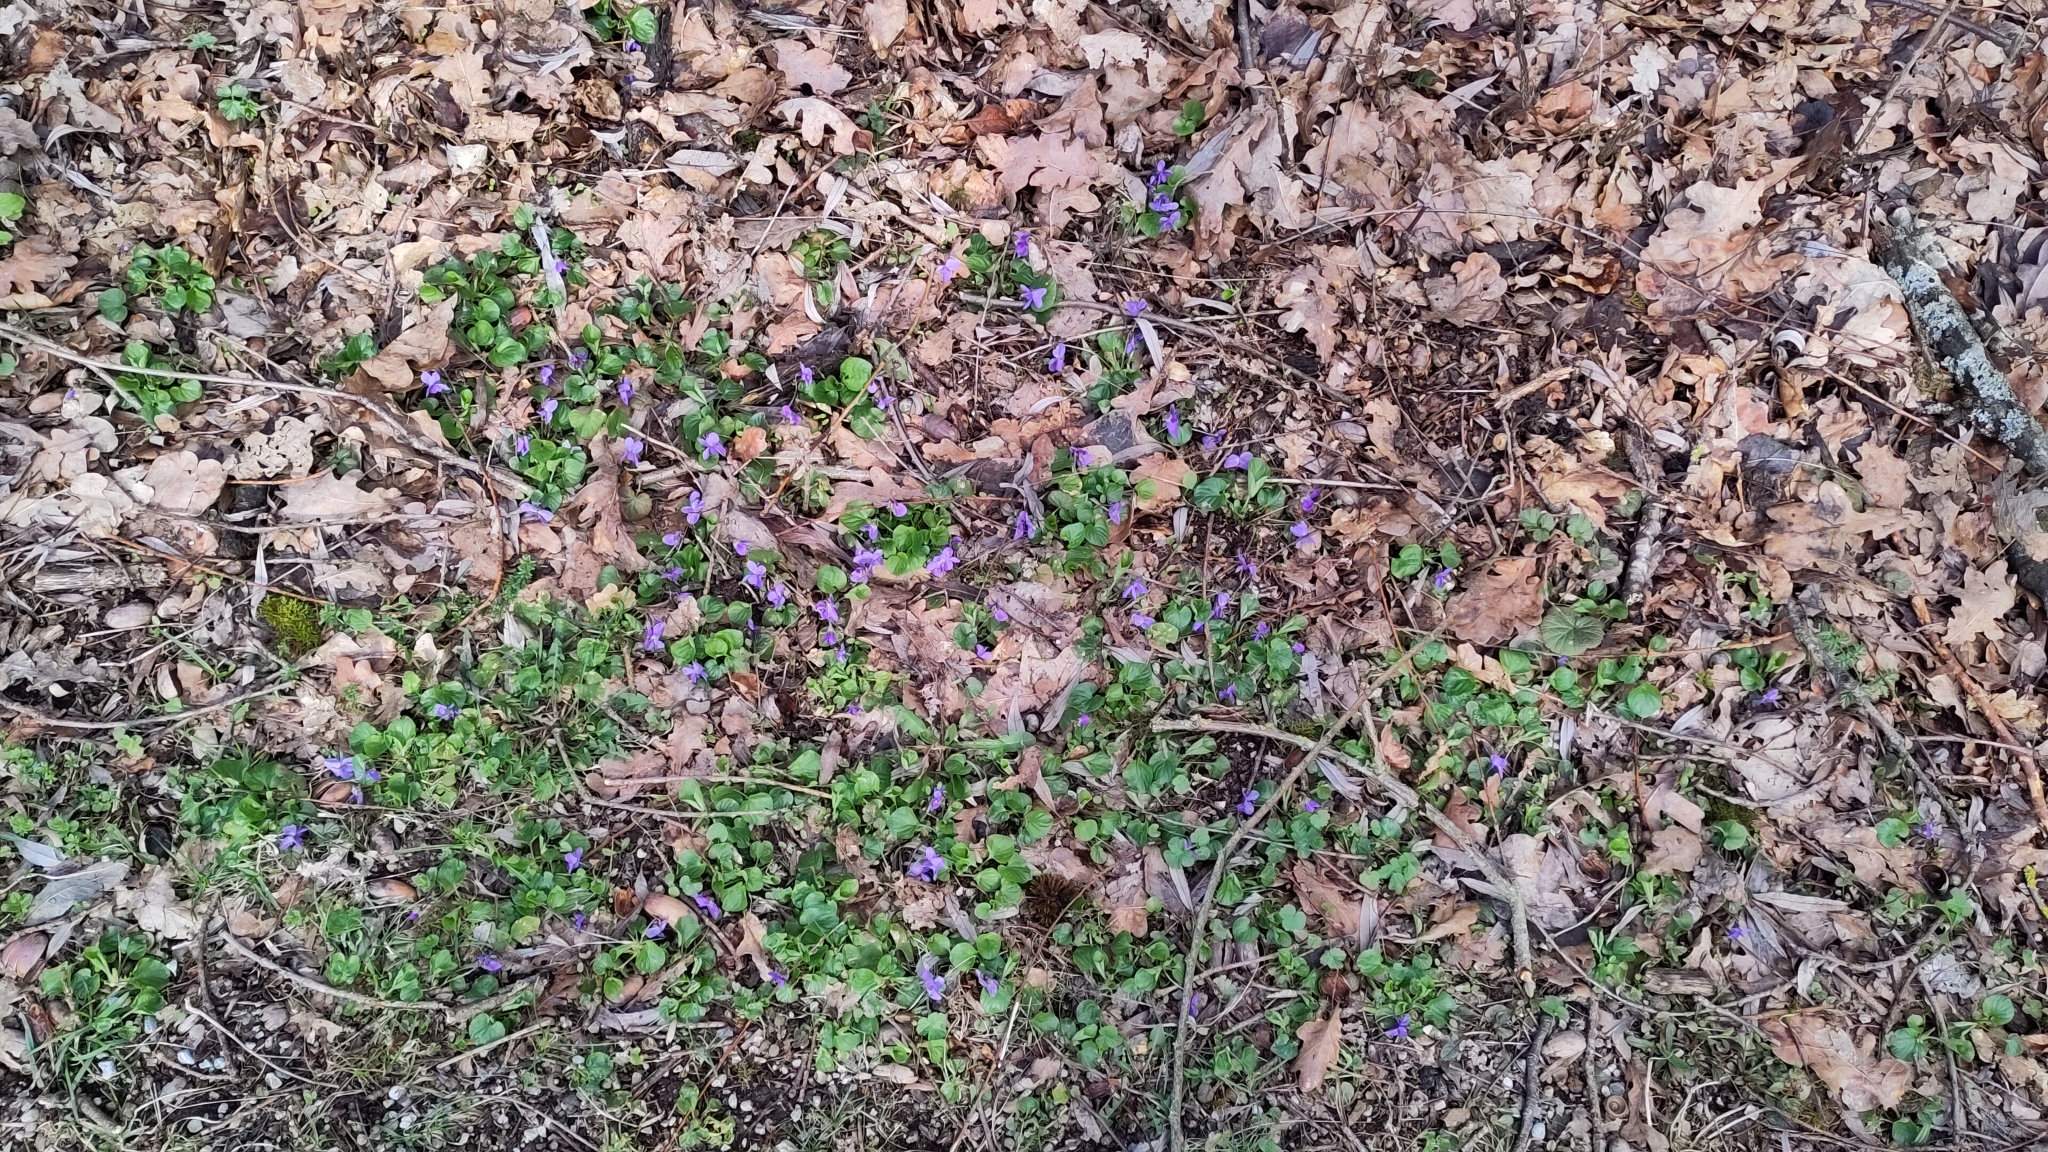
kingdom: Plantae
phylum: Tracheophyta
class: Magnoliopsida
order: Malpighiales
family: Violaceae
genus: Viola
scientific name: Viola odorata
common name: Sweet violet
